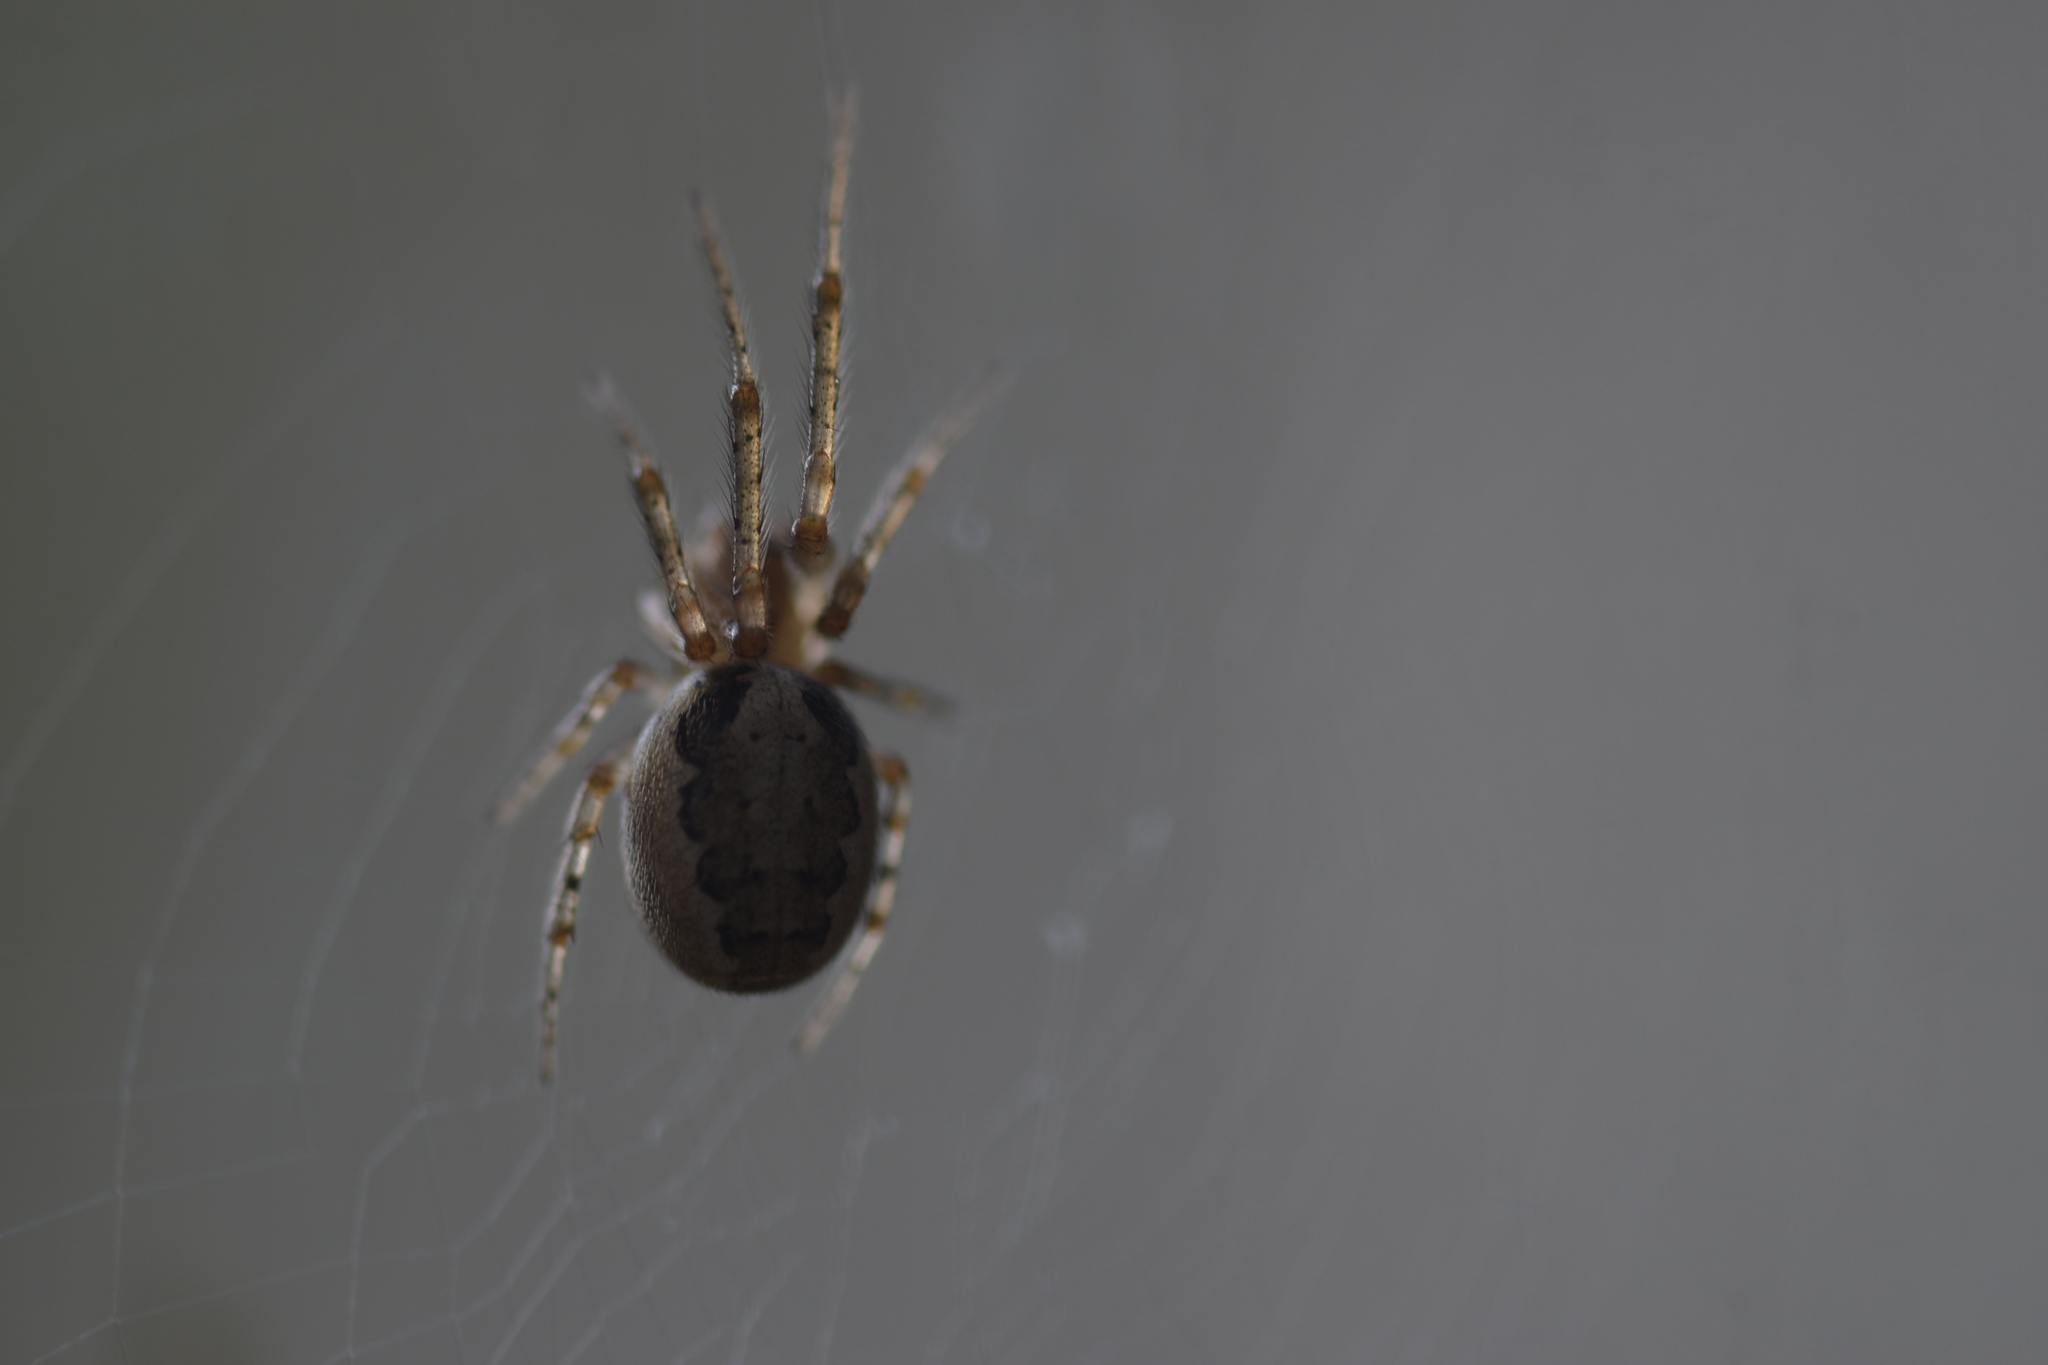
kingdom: Animalia
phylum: Arthropoda
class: Arachnida
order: Araneae
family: Araneidae
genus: Zygiella
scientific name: Zygiella x-notata
